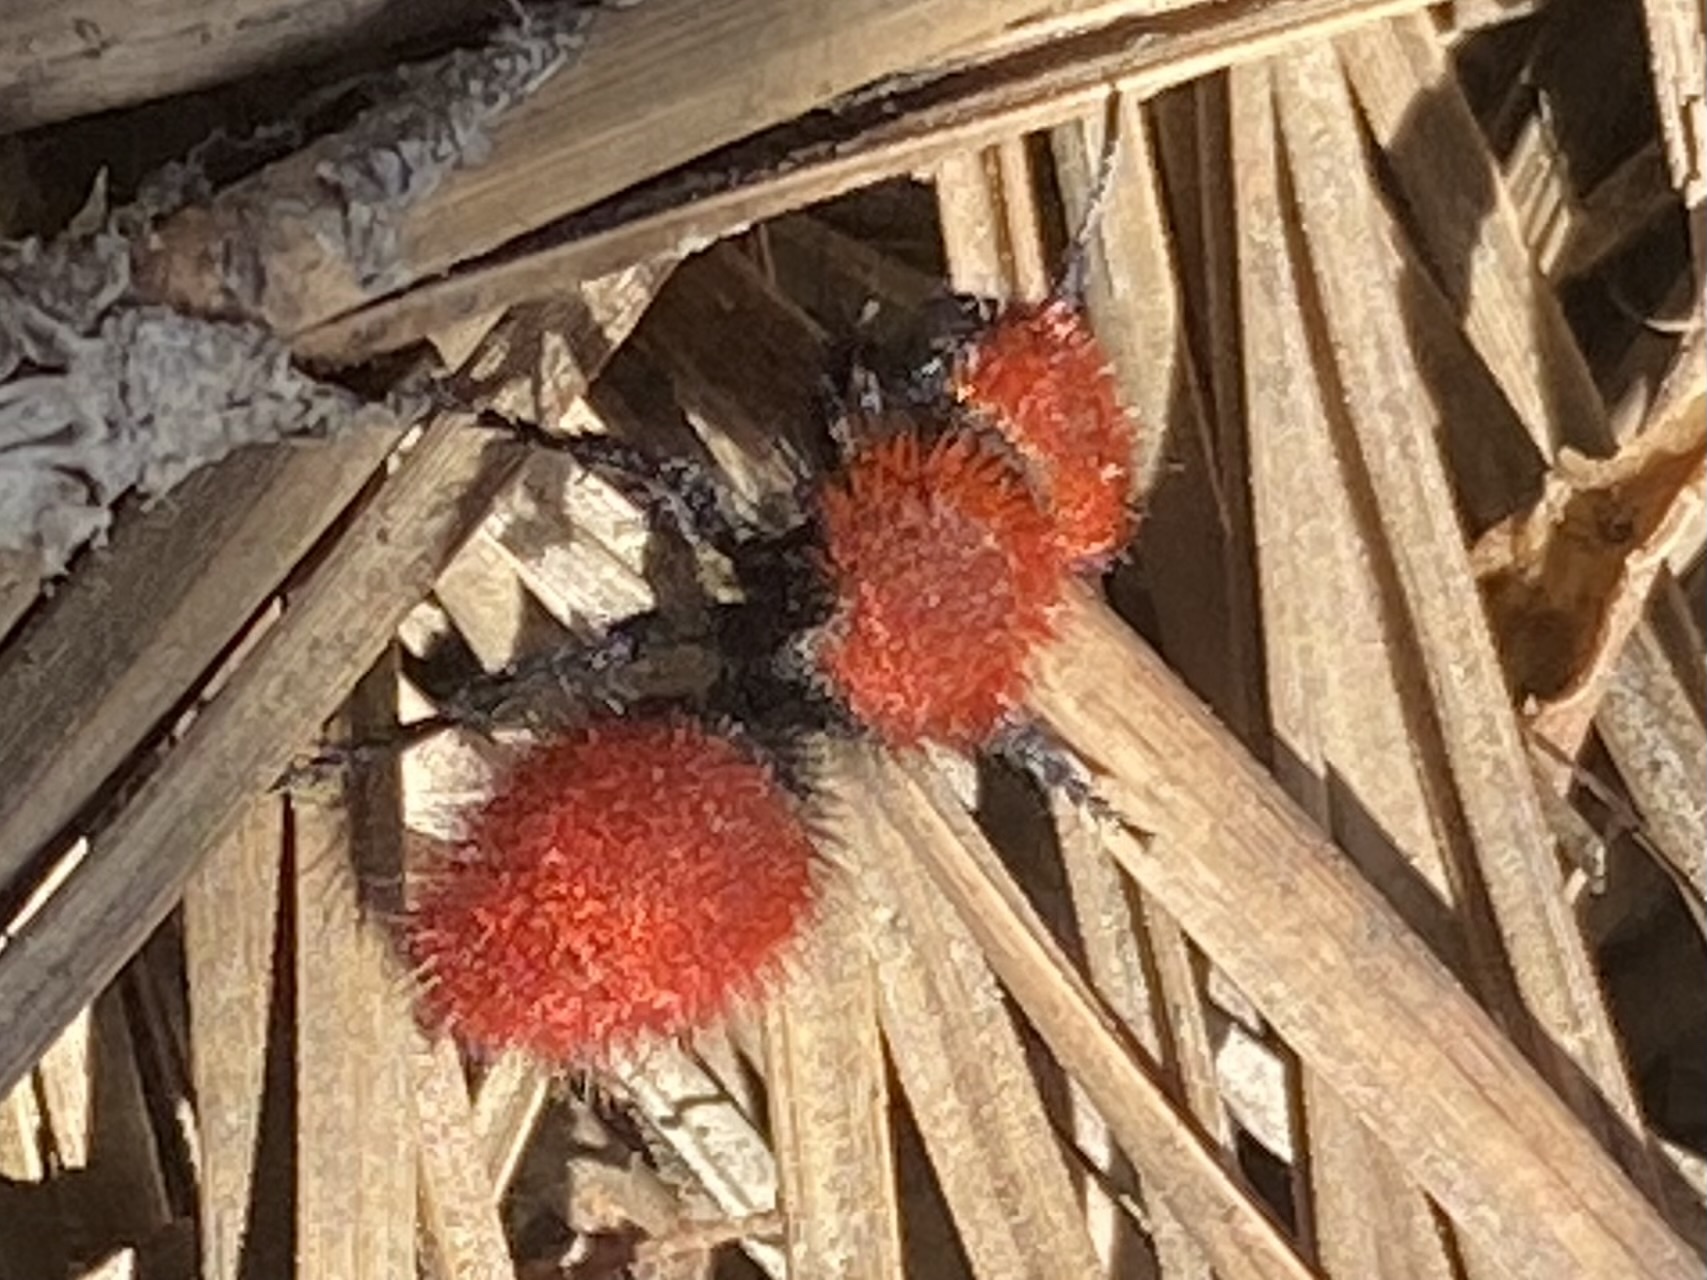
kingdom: Animalia
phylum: Arthropoda
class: Insecta
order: Hymenoptera
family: Mutillidae
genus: Dasymutilla
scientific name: Dasymutilla
